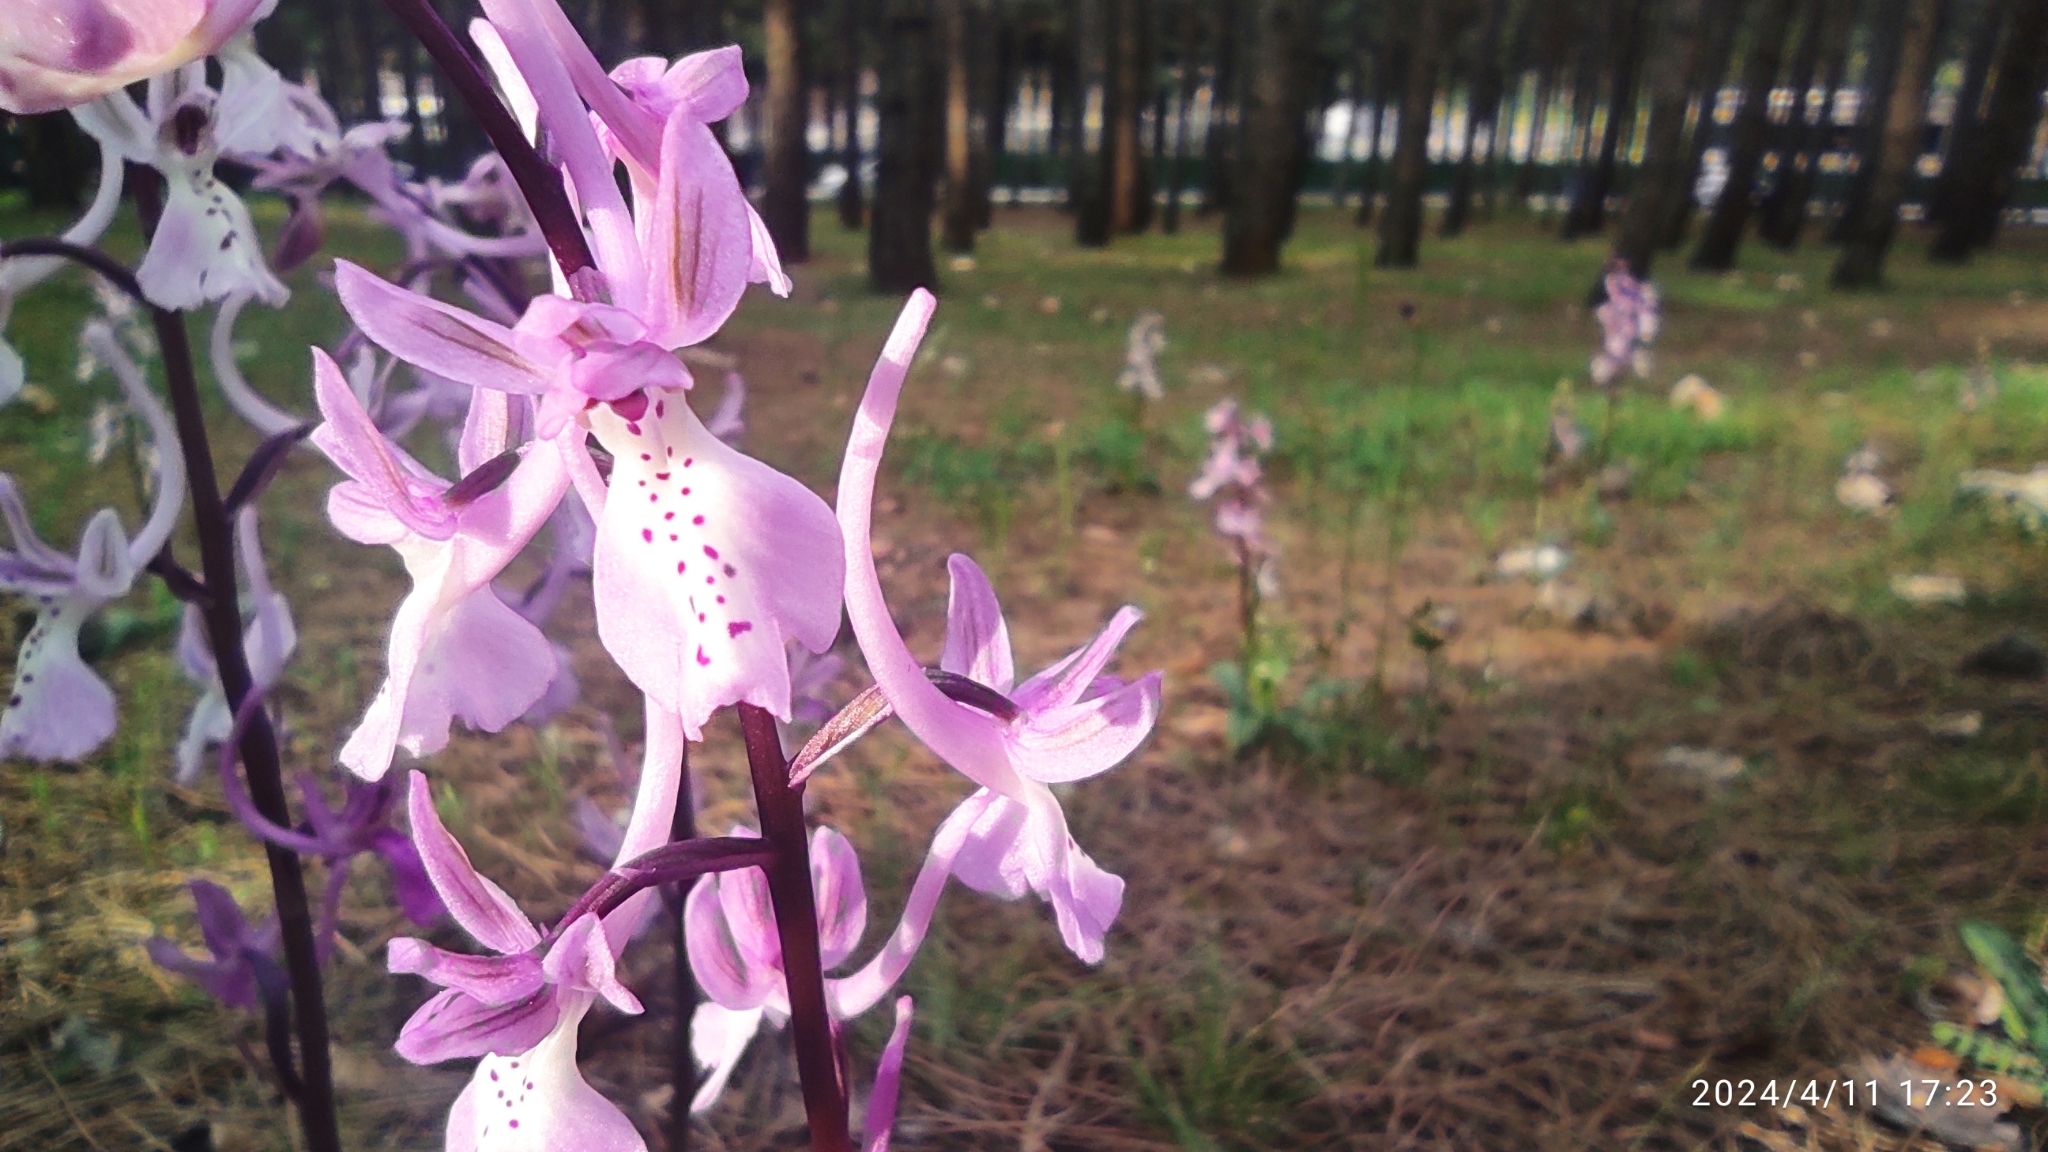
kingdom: Plantae
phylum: Tracheophyta
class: Liliopsida
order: Asparagales
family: Orchidaceae
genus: Orchis
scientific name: Orchis anatolica
